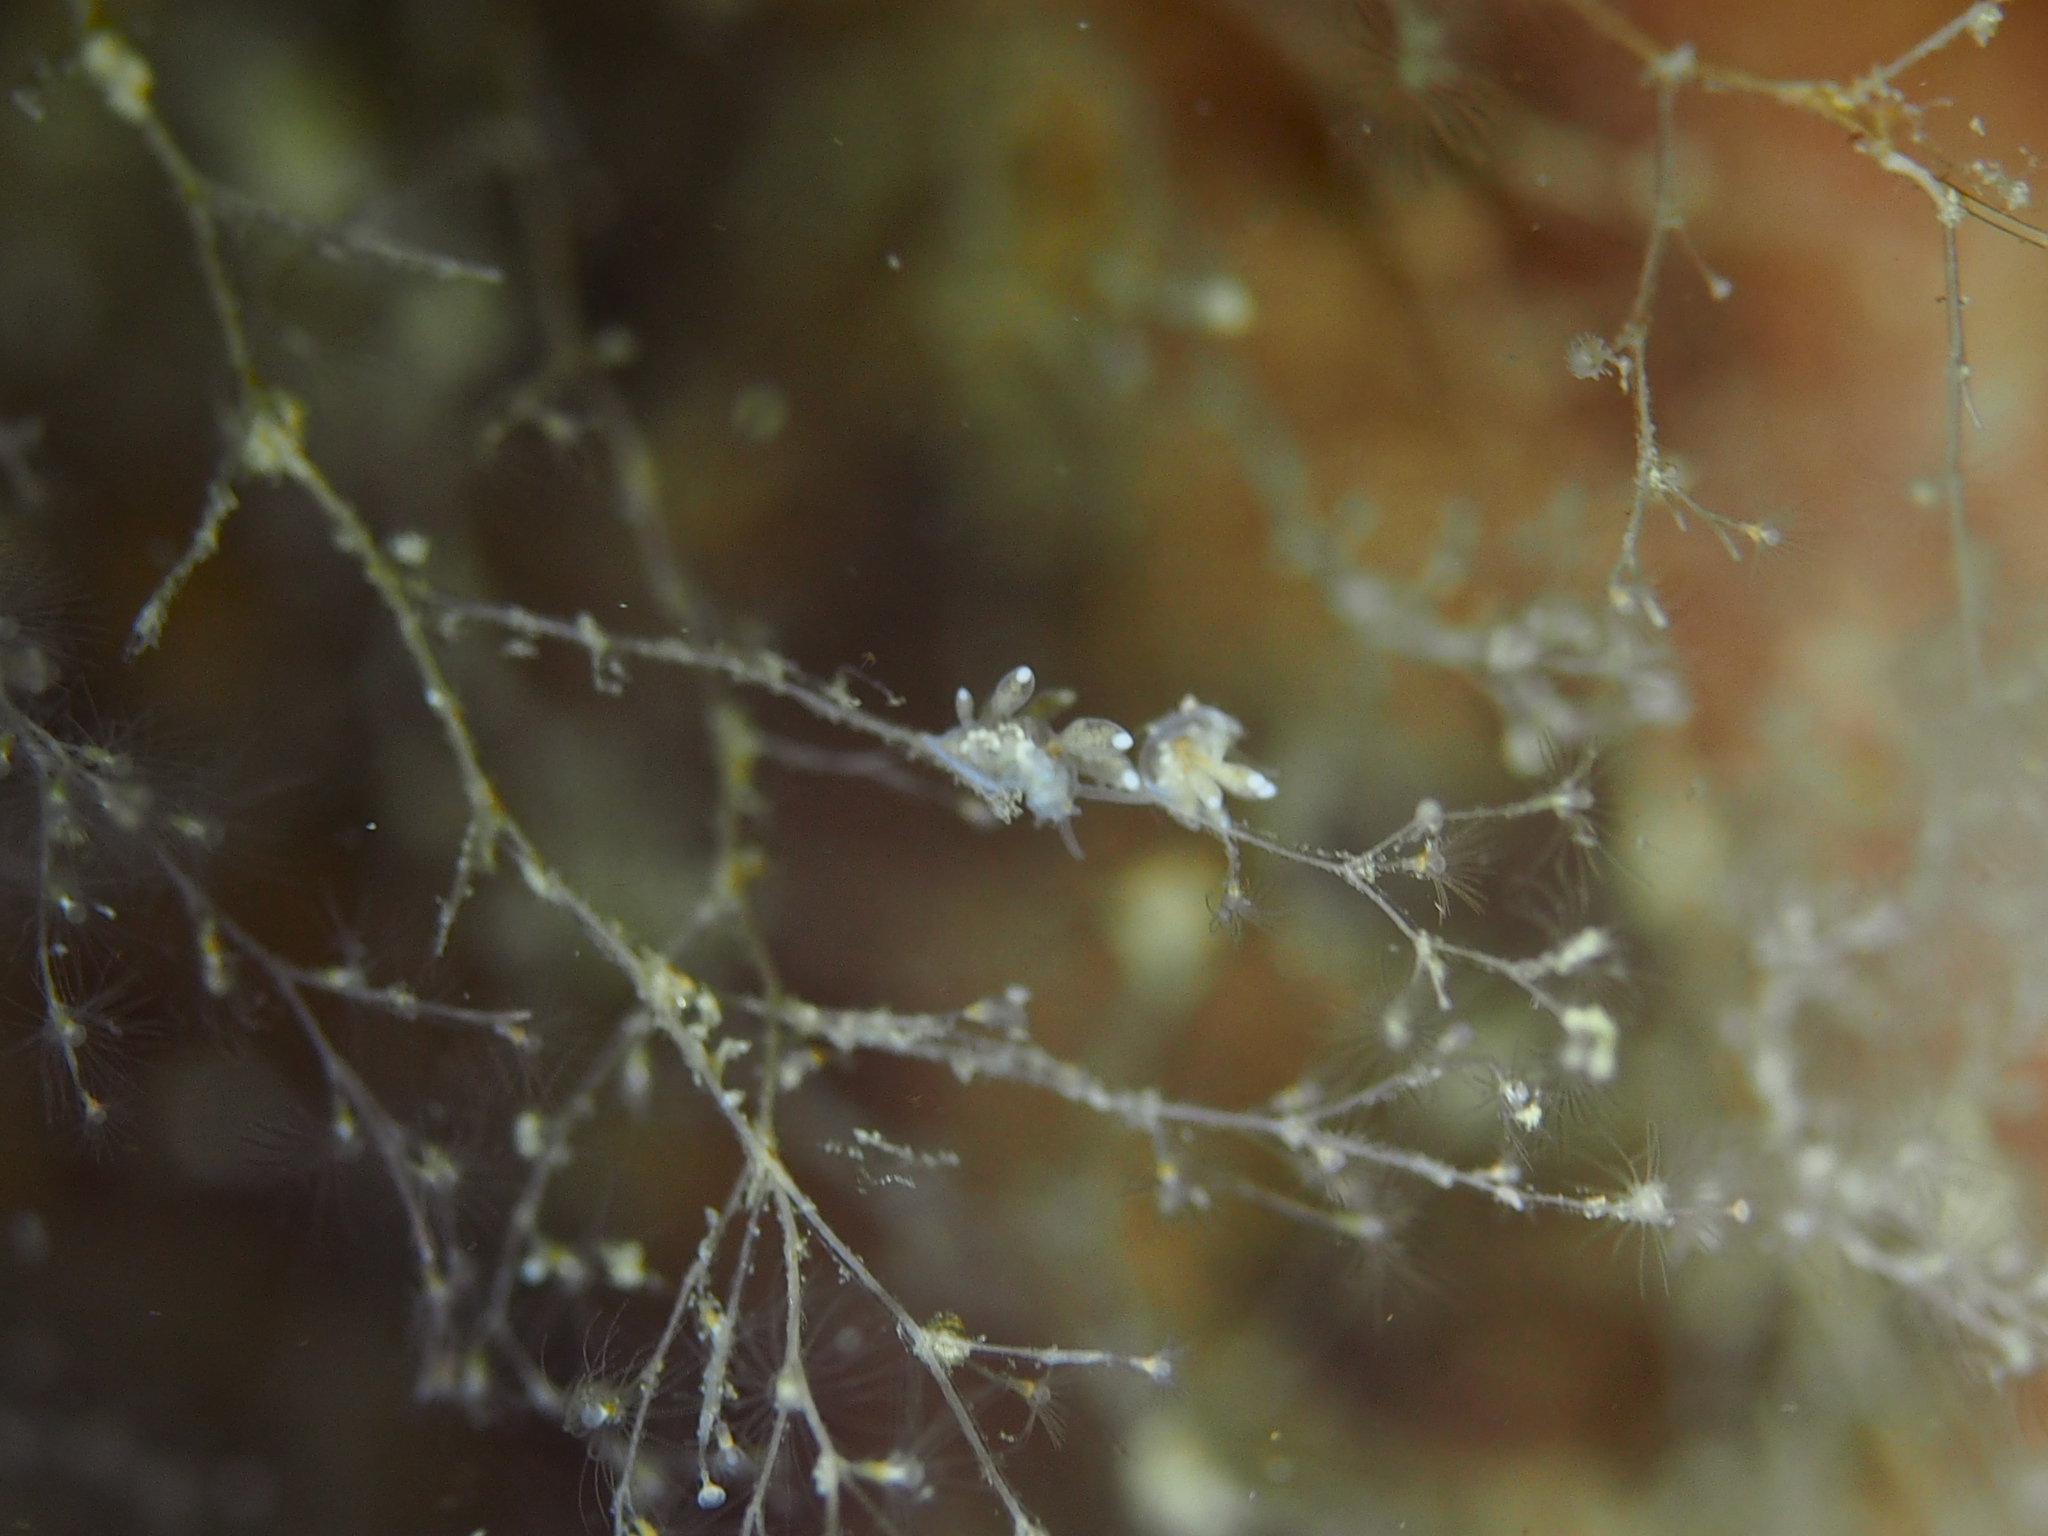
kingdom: Animalia
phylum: Mollusca
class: Gastropoda
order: Nudibranchia
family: Tergipedidae
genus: Tergipes
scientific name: Tergipes tergipes
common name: Johnston's balloon eolis
